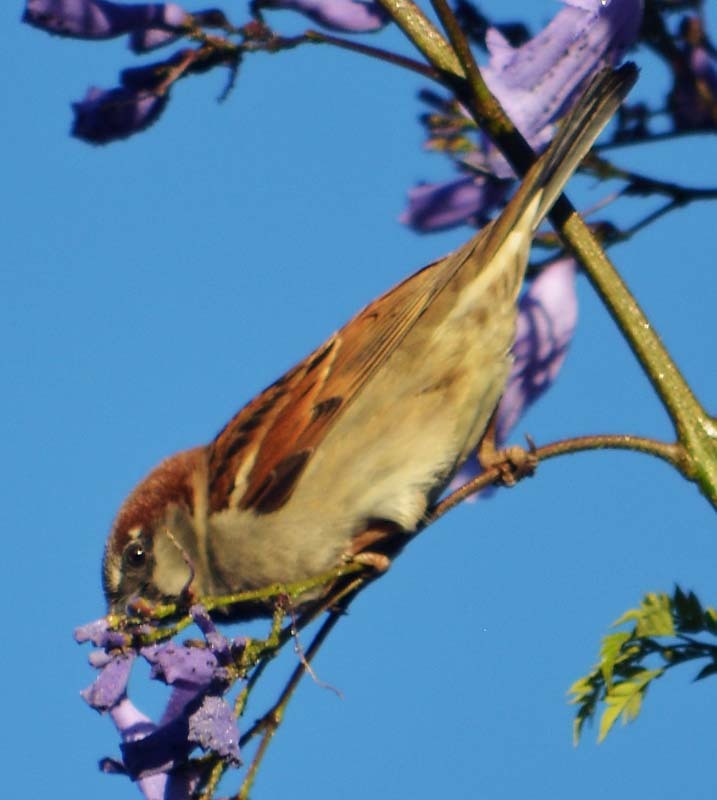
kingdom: Animalia
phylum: Chordata
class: Aves
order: Passeriformes
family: Passeridae
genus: Passer
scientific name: Passer domesticus
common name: House sparrow
